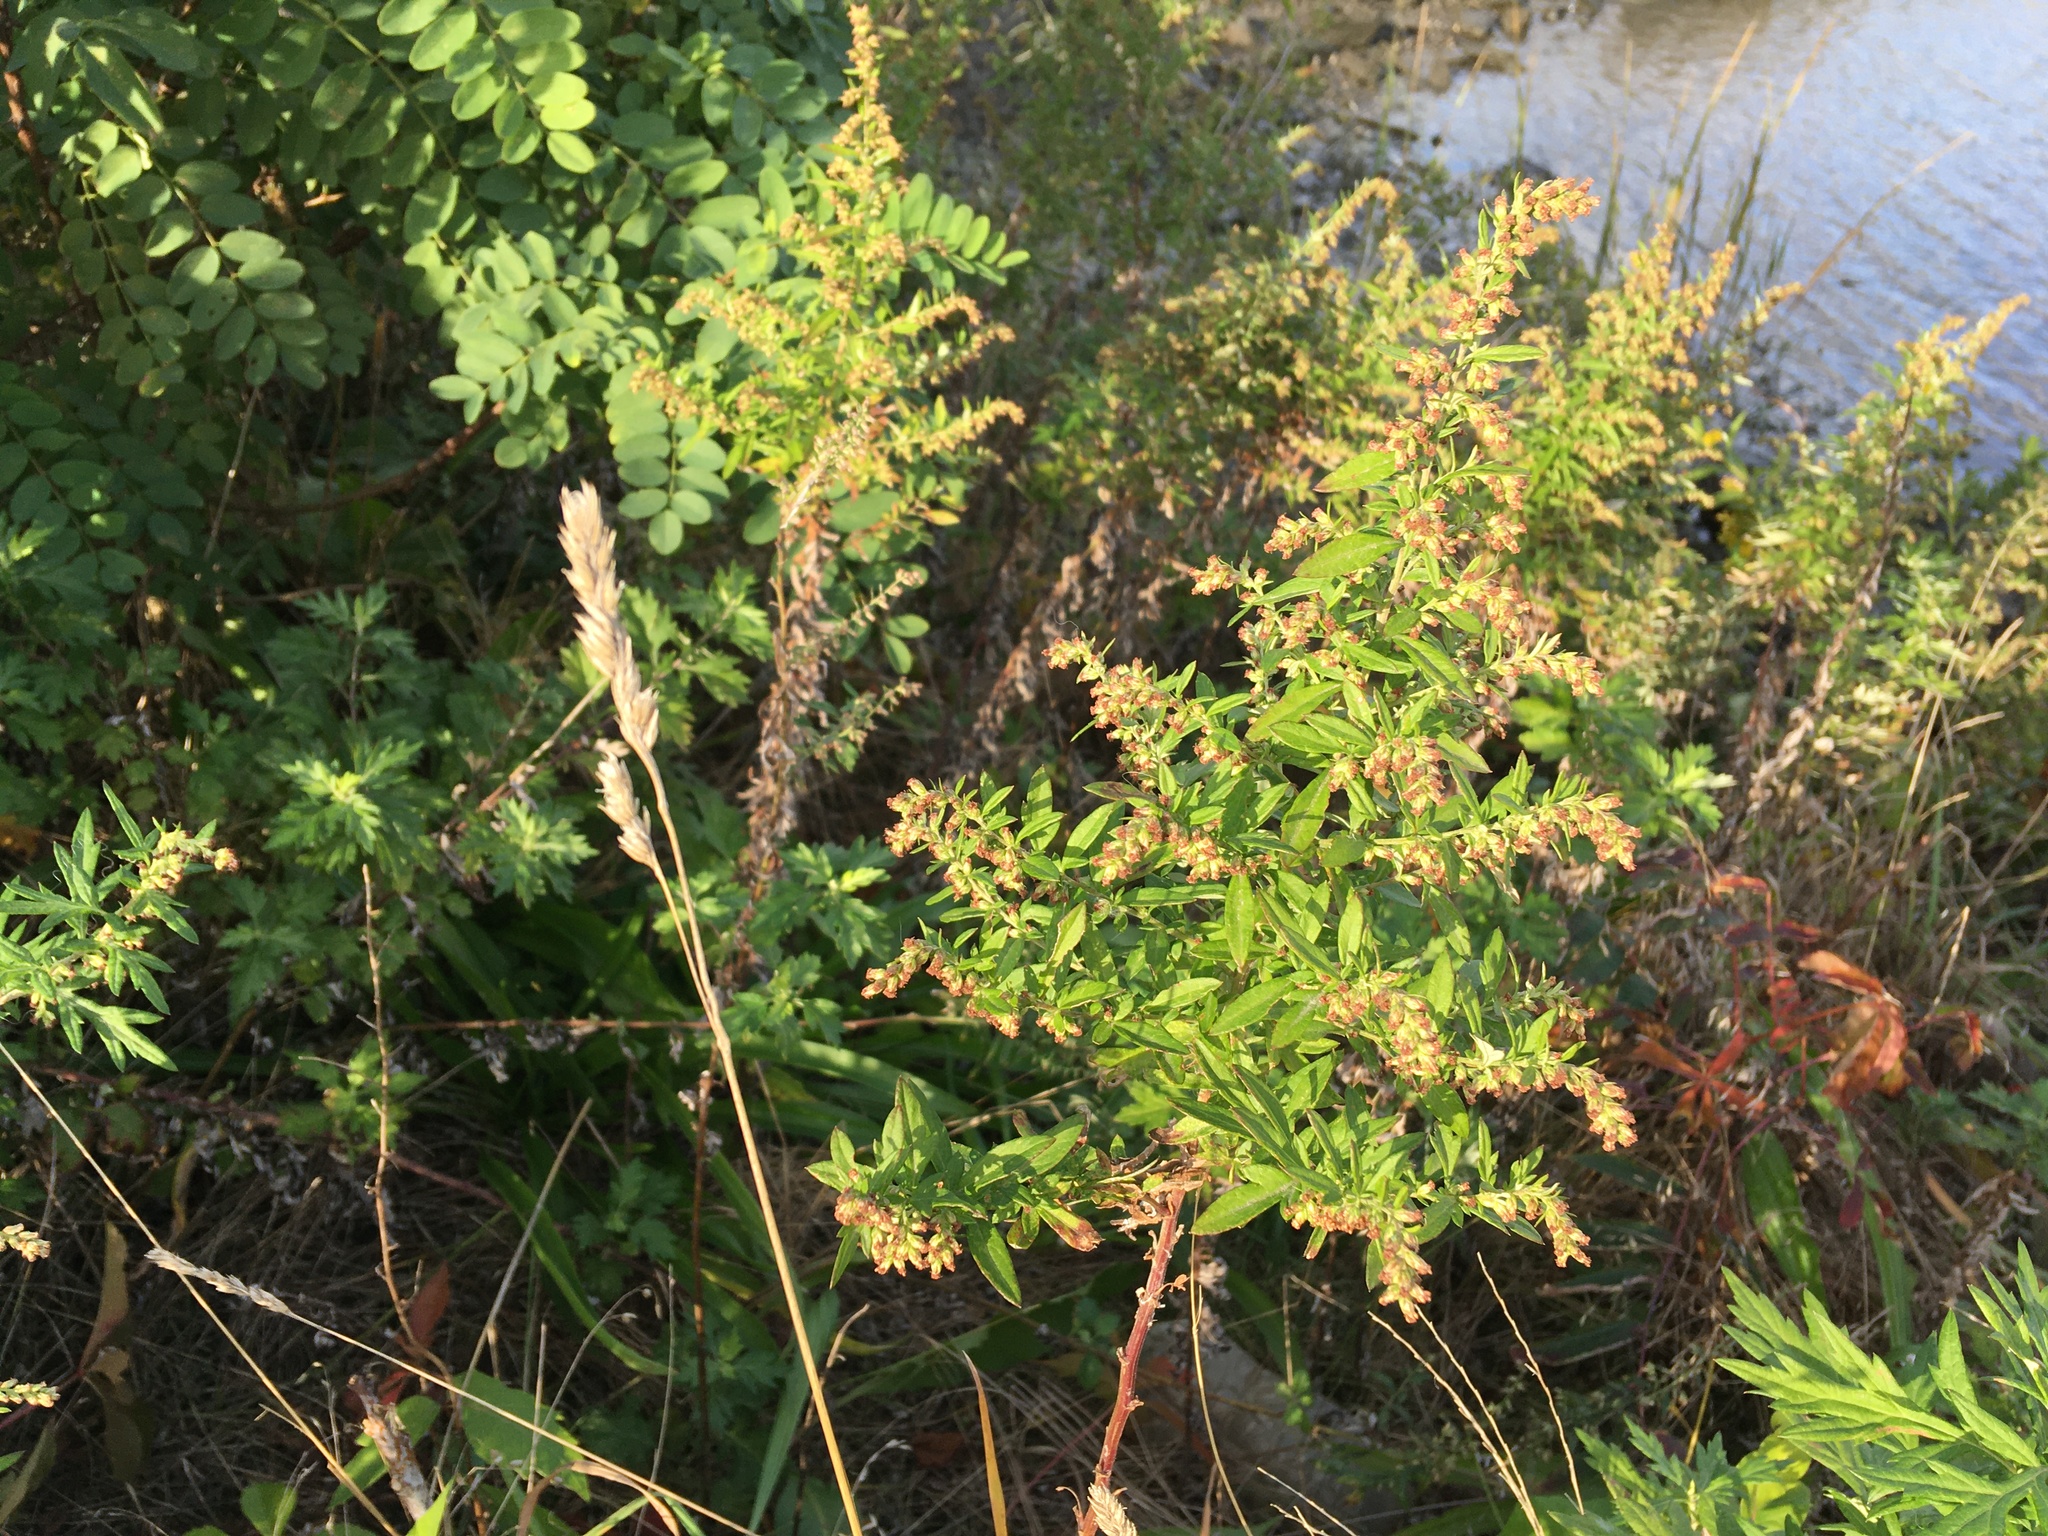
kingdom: Plantae
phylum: Tracheophyta
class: Magnoliopsida
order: Asterales
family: Asteraceae
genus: Artemisia
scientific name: Artemisia vulgaris
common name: Mugwort
